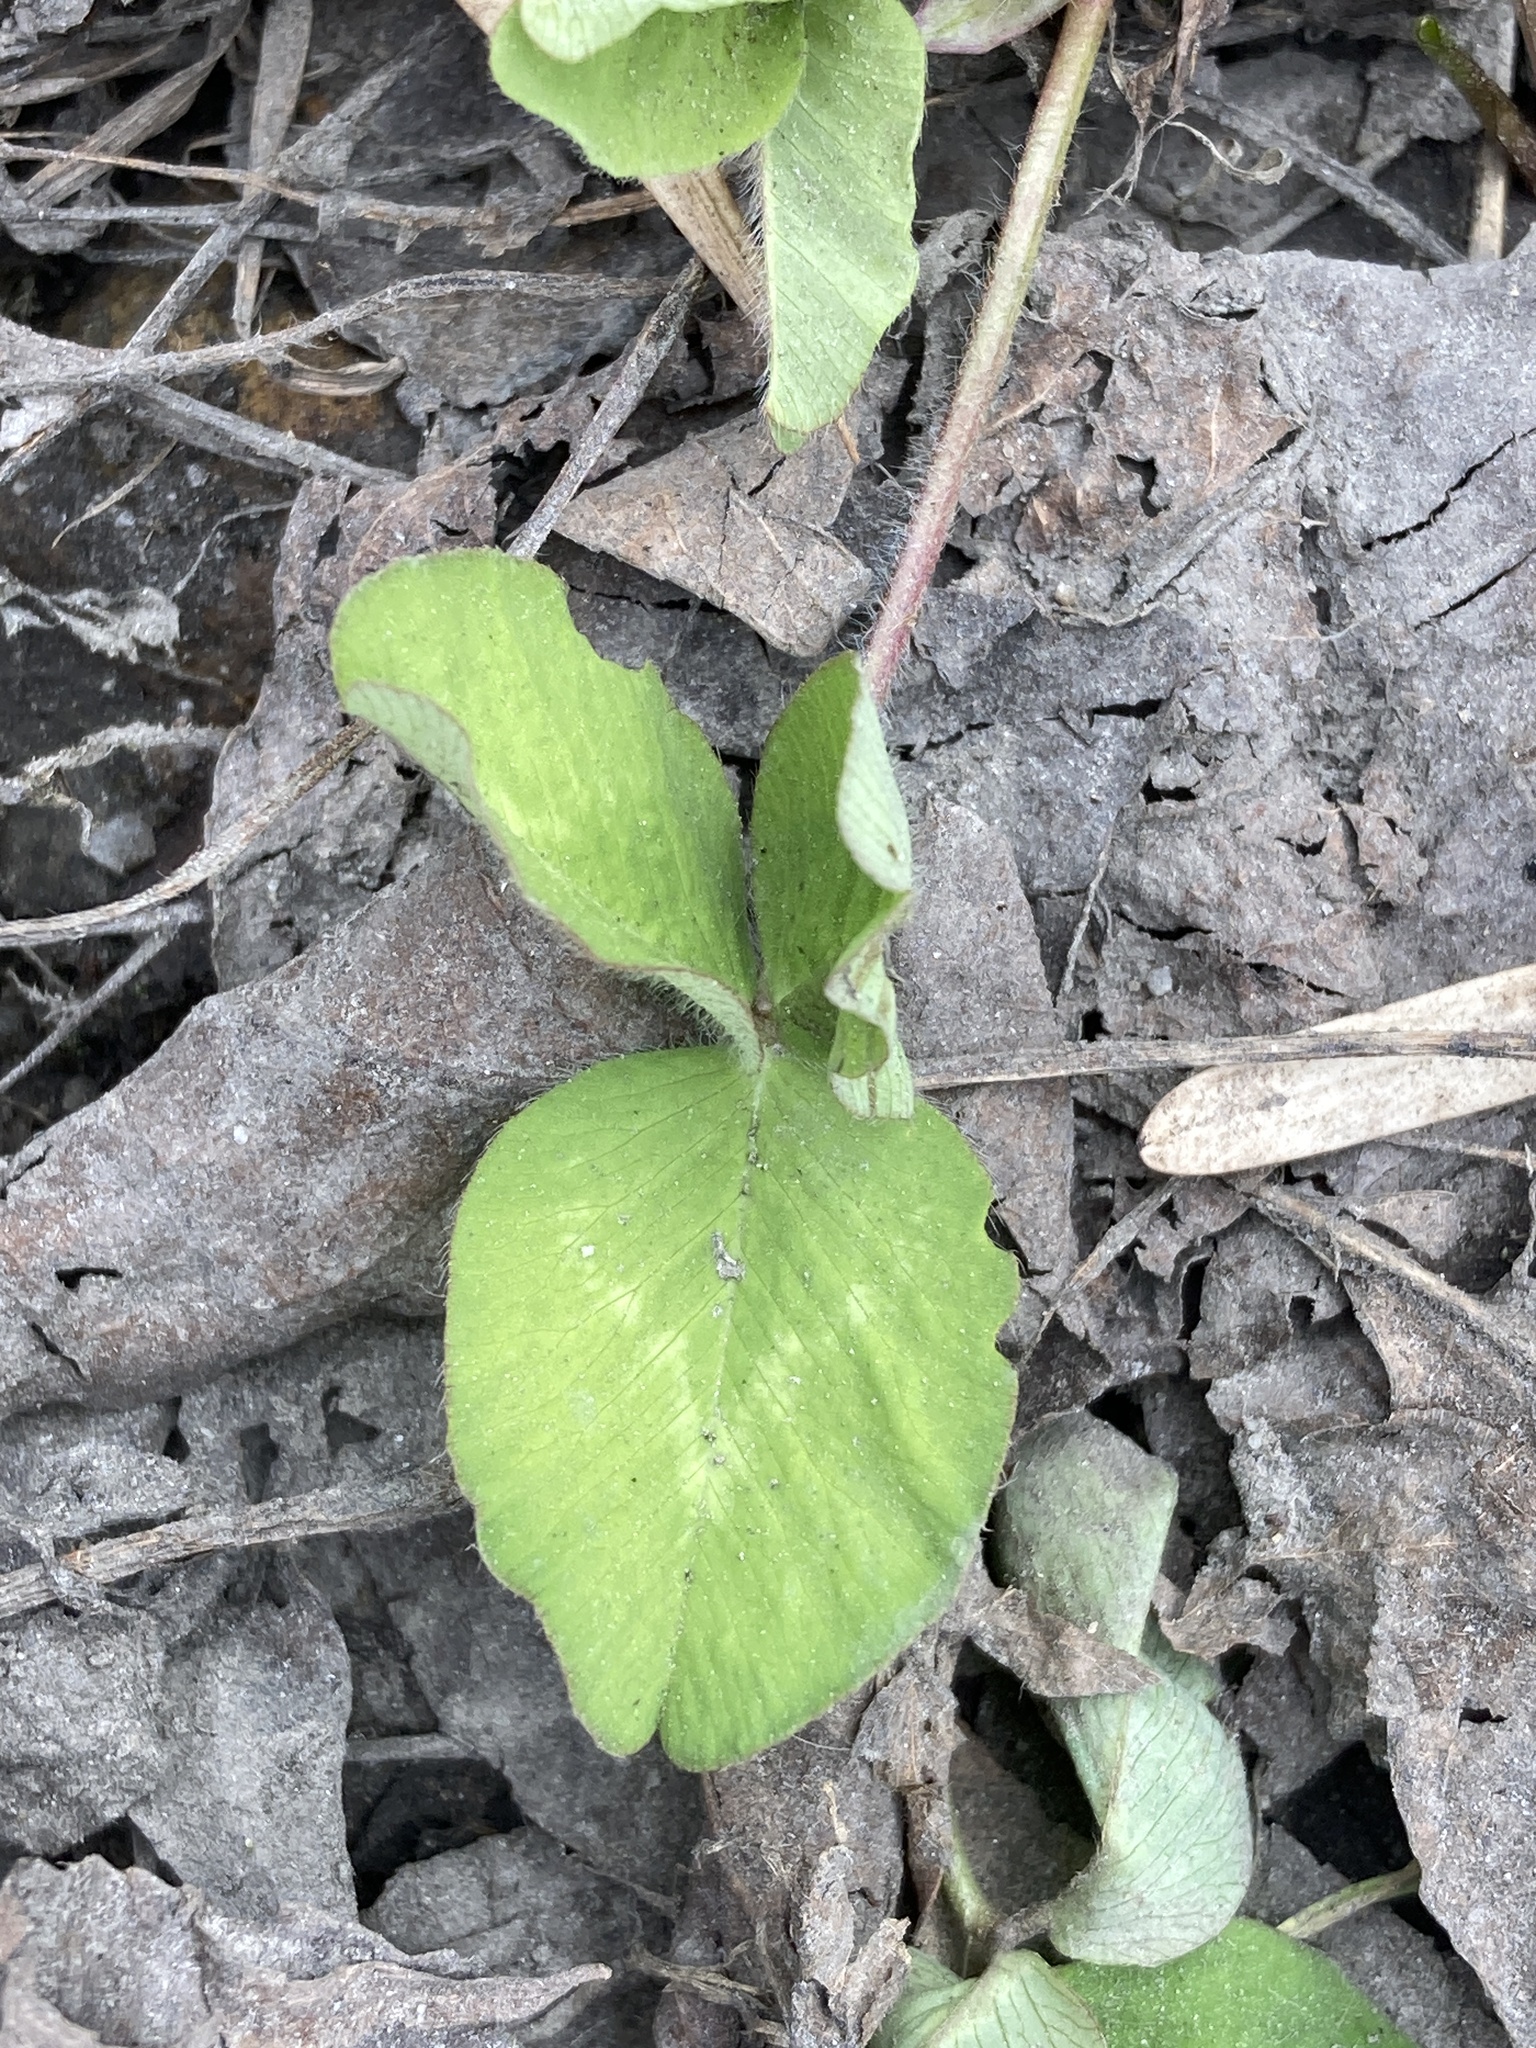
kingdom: Plantae
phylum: Tracheophyta
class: Magnoliopsida
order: Fabales
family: Fabaceae
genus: Trifolium
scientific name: Trifolium pratense
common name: Red clover
